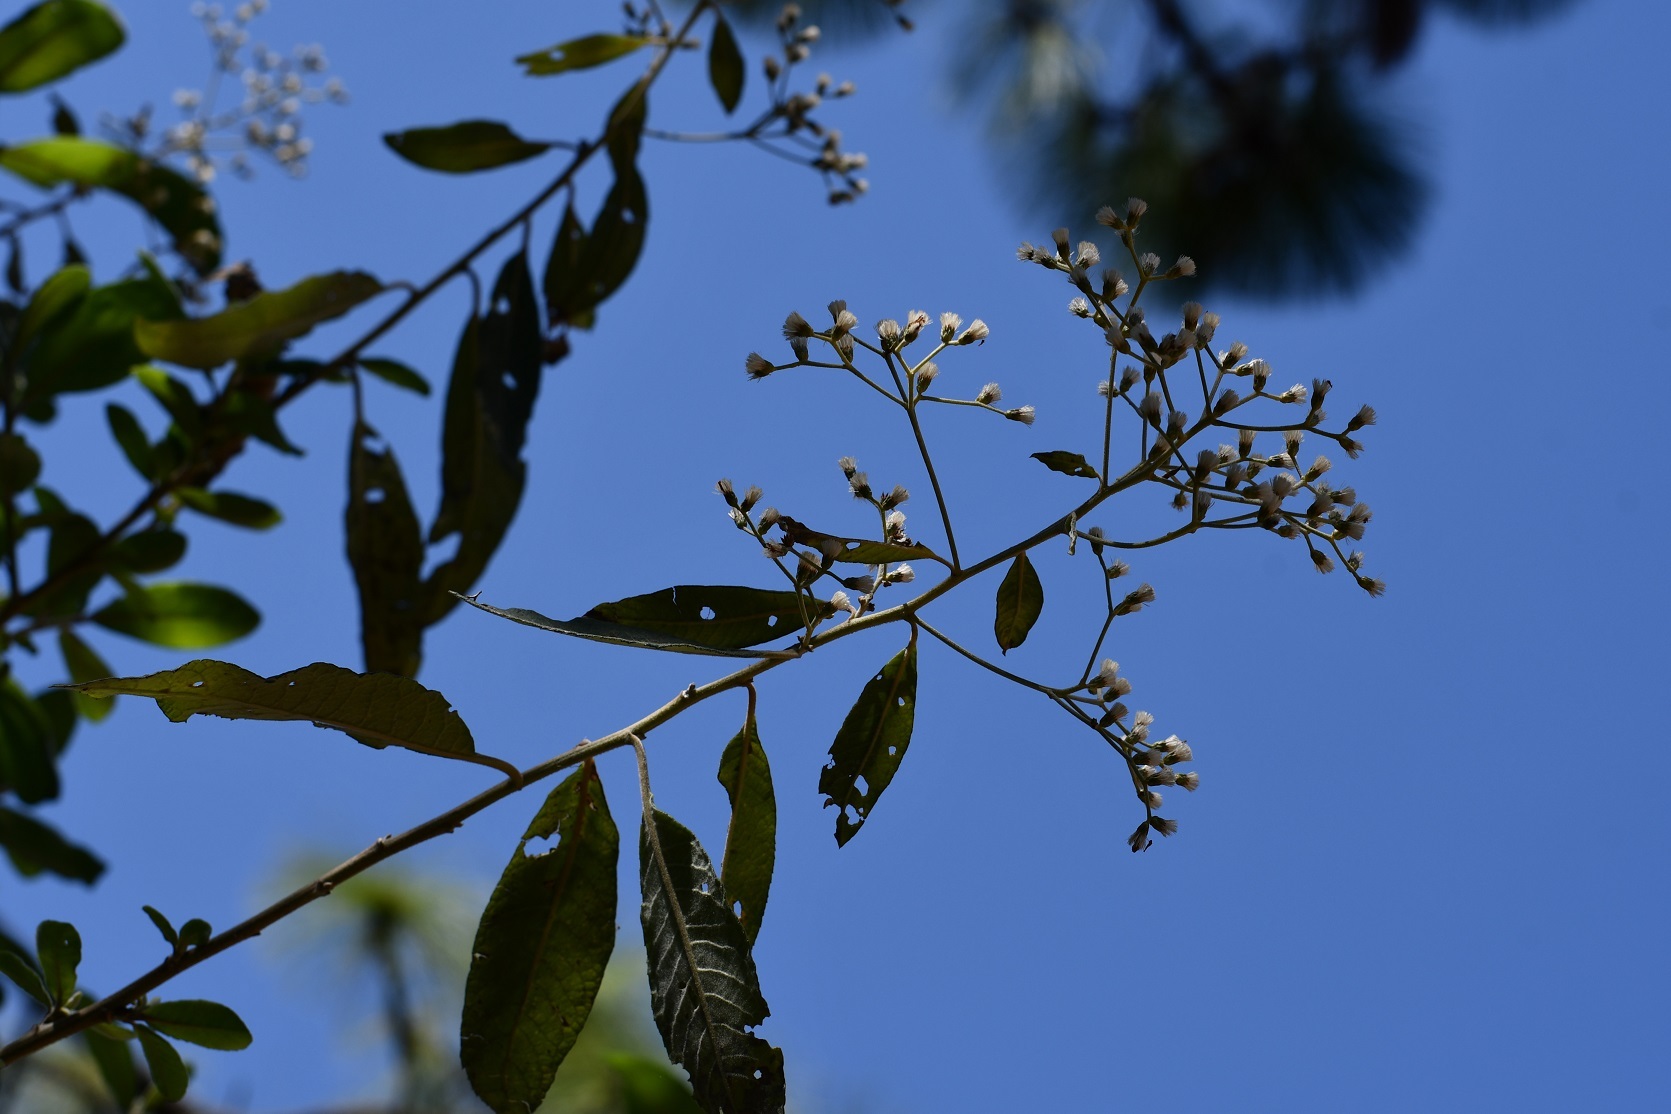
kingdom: Plantae
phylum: Tracheophyta
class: Magnoliopsida
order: Asterales
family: Asteraceae
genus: Vernonanthura
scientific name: Vernonanthura patens
